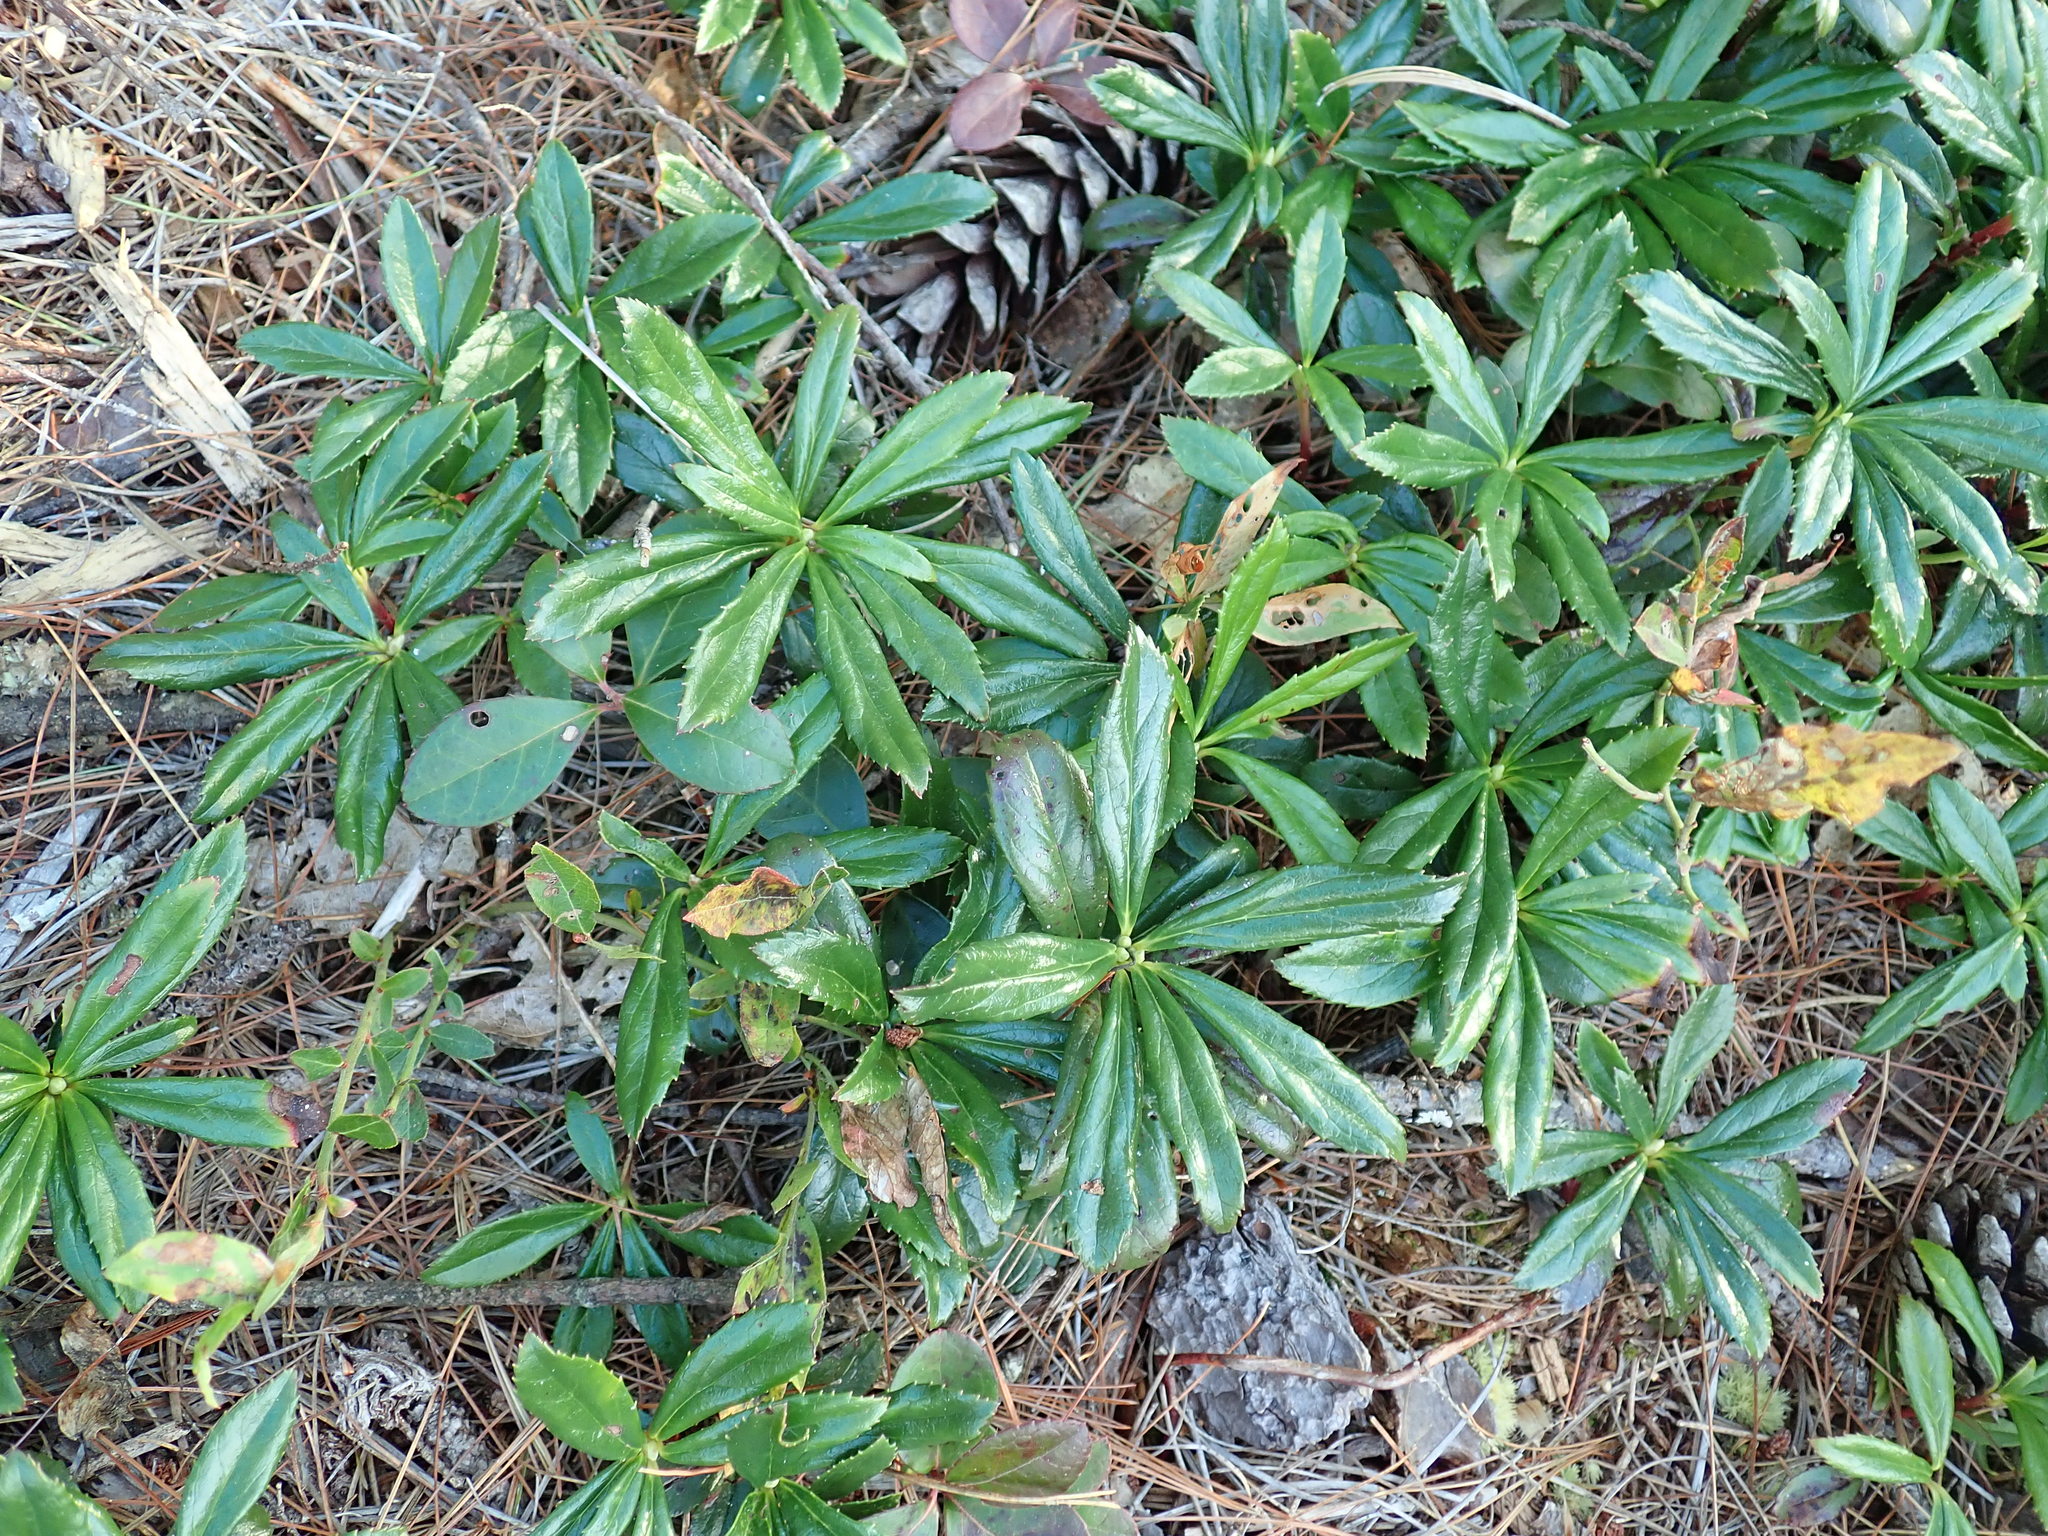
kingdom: Plantae
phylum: Tracheophyta
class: Magnoliopsida
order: Ericales
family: Ericaceae
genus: Chimaphila
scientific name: Chimaphila umbellata
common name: Pipsissewa
